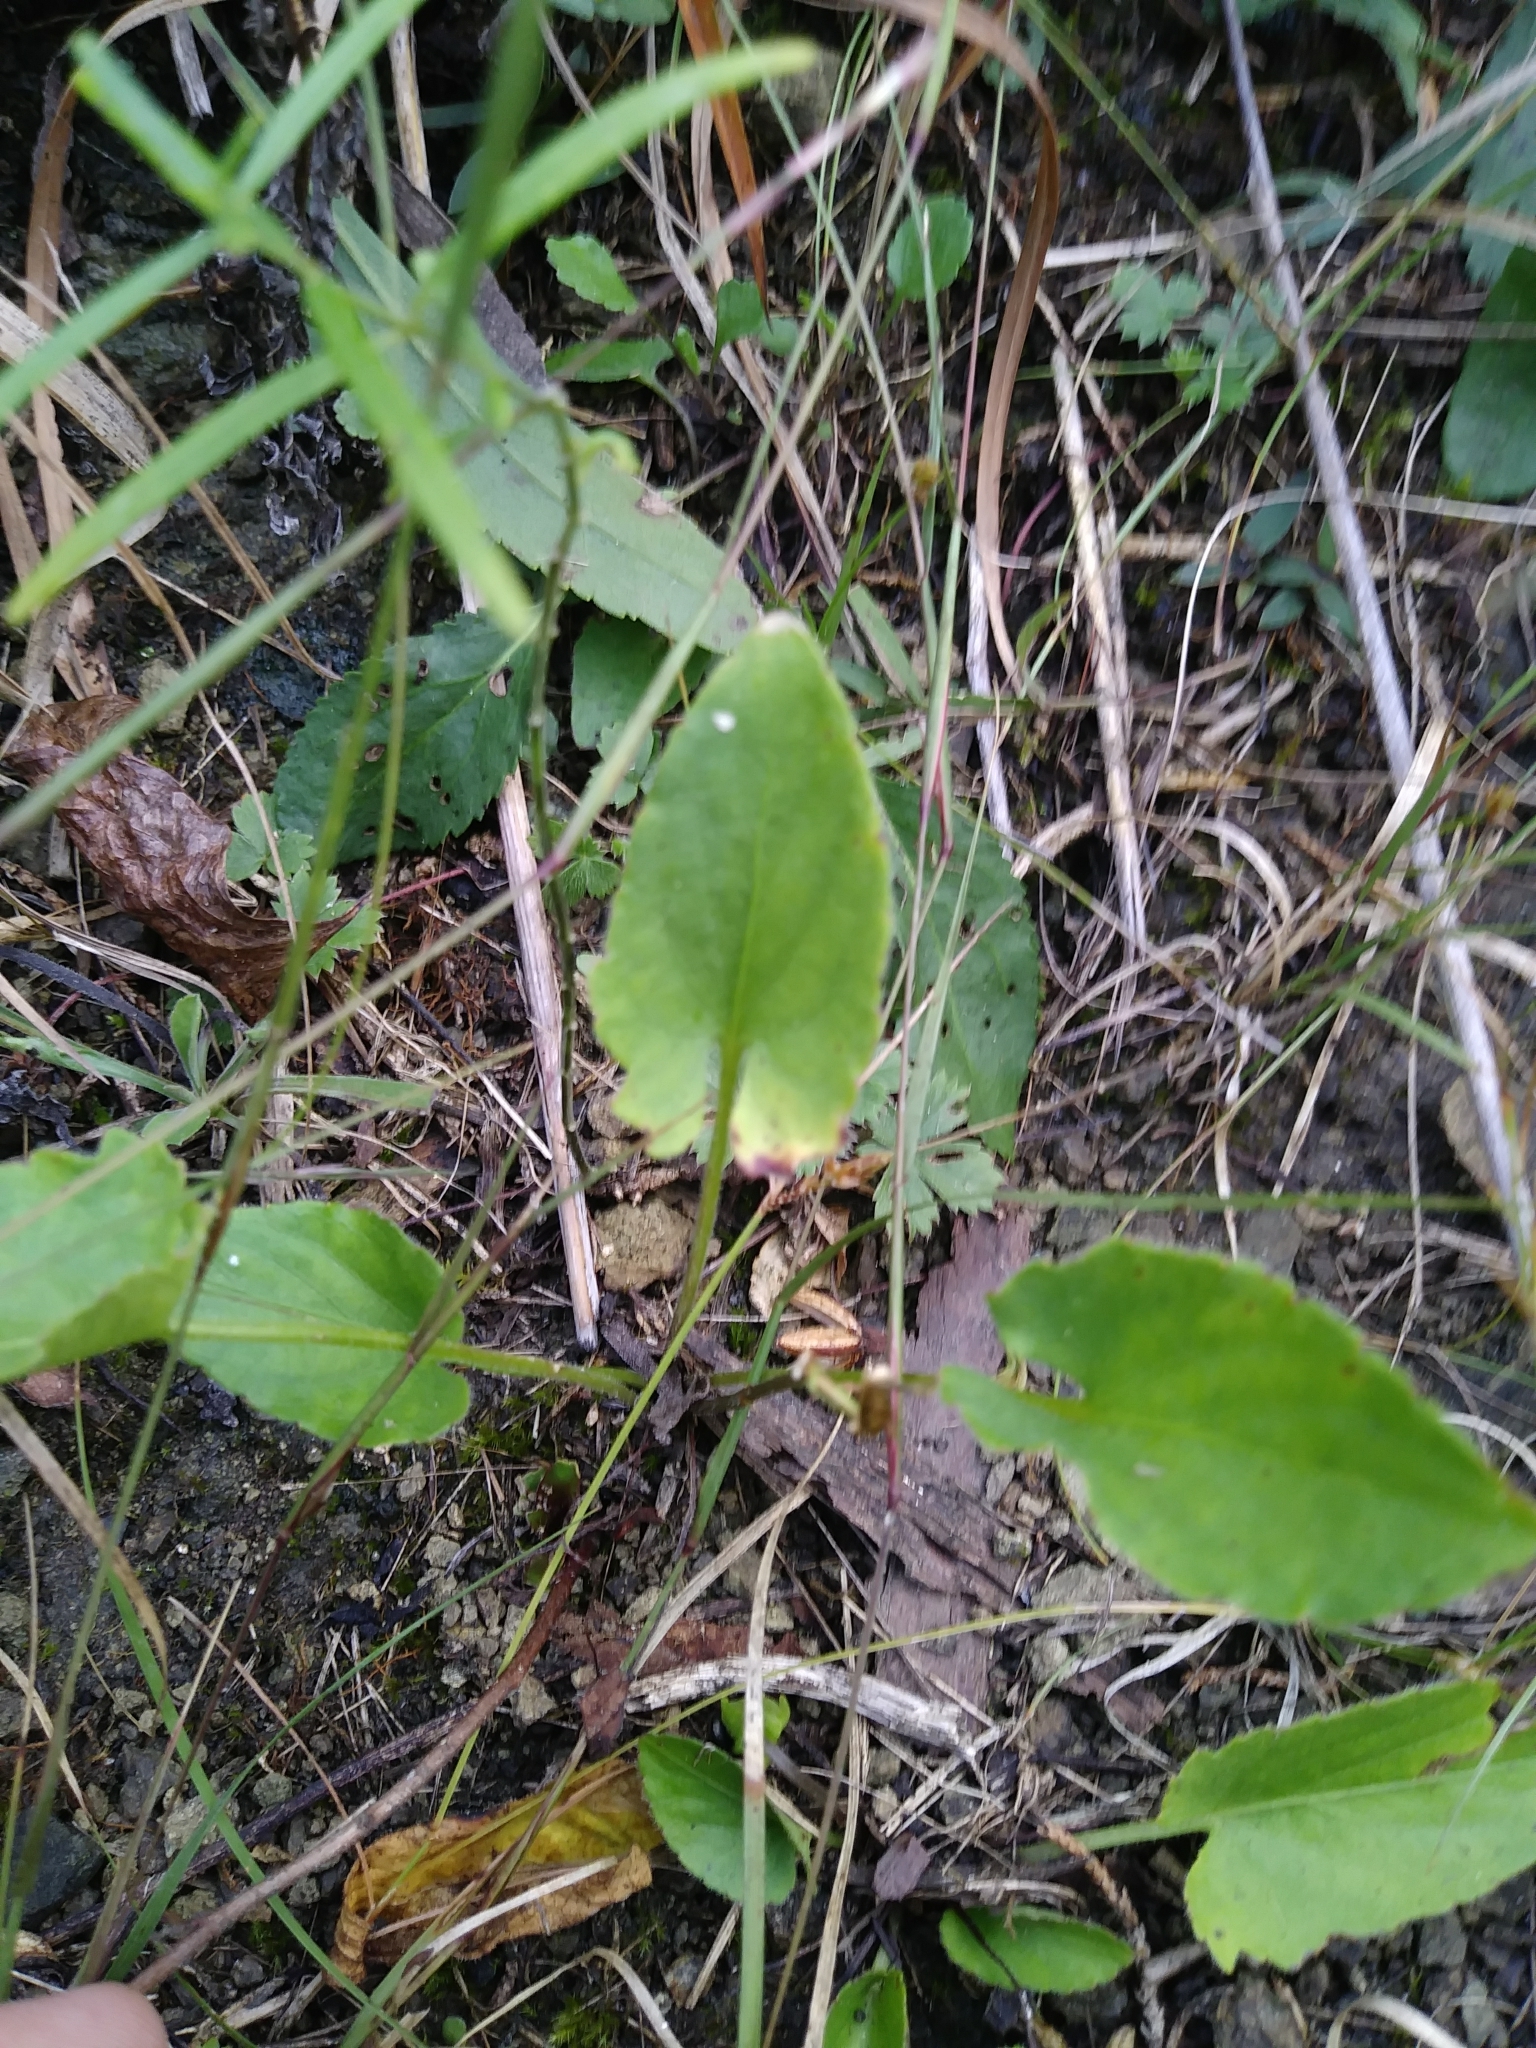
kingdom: Plantae
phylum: Tracheophyta
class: Magnoliopsida
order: Malpighiales
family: Violaceae
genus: Viola
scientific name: Viola sagittata
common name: Arrowhead violet
